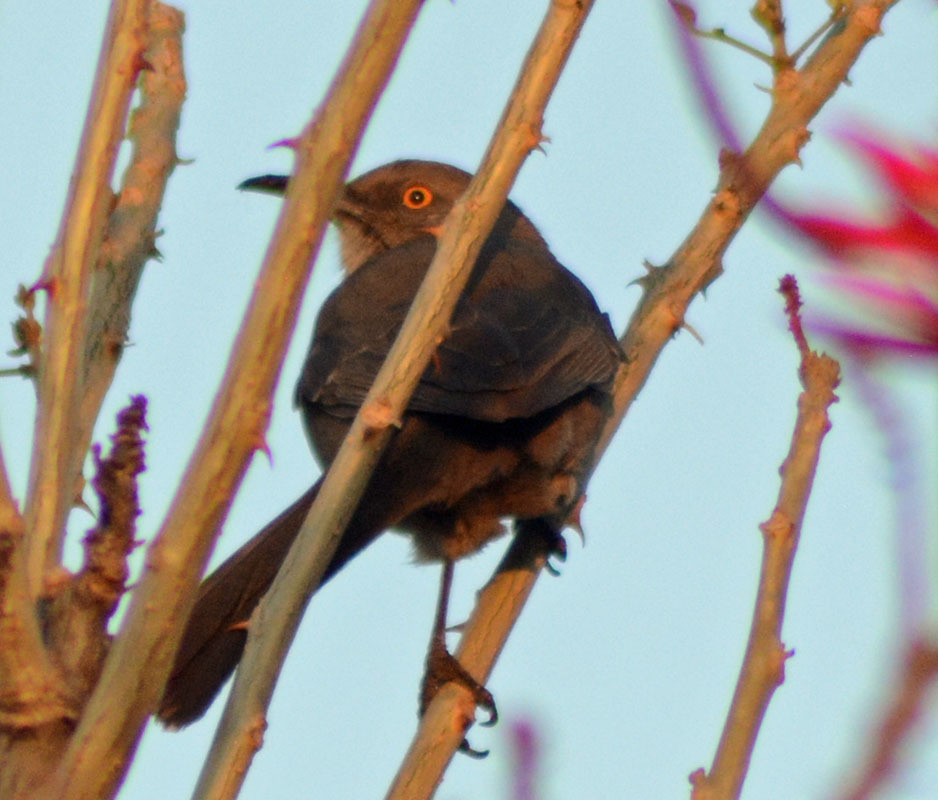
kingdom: Animalia
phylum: Chordata
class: Aves
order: Passeriformes
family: Mimidae
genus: Toxostoma
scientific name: Toxostoma curvirostre
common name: Curve-billed thrasher
